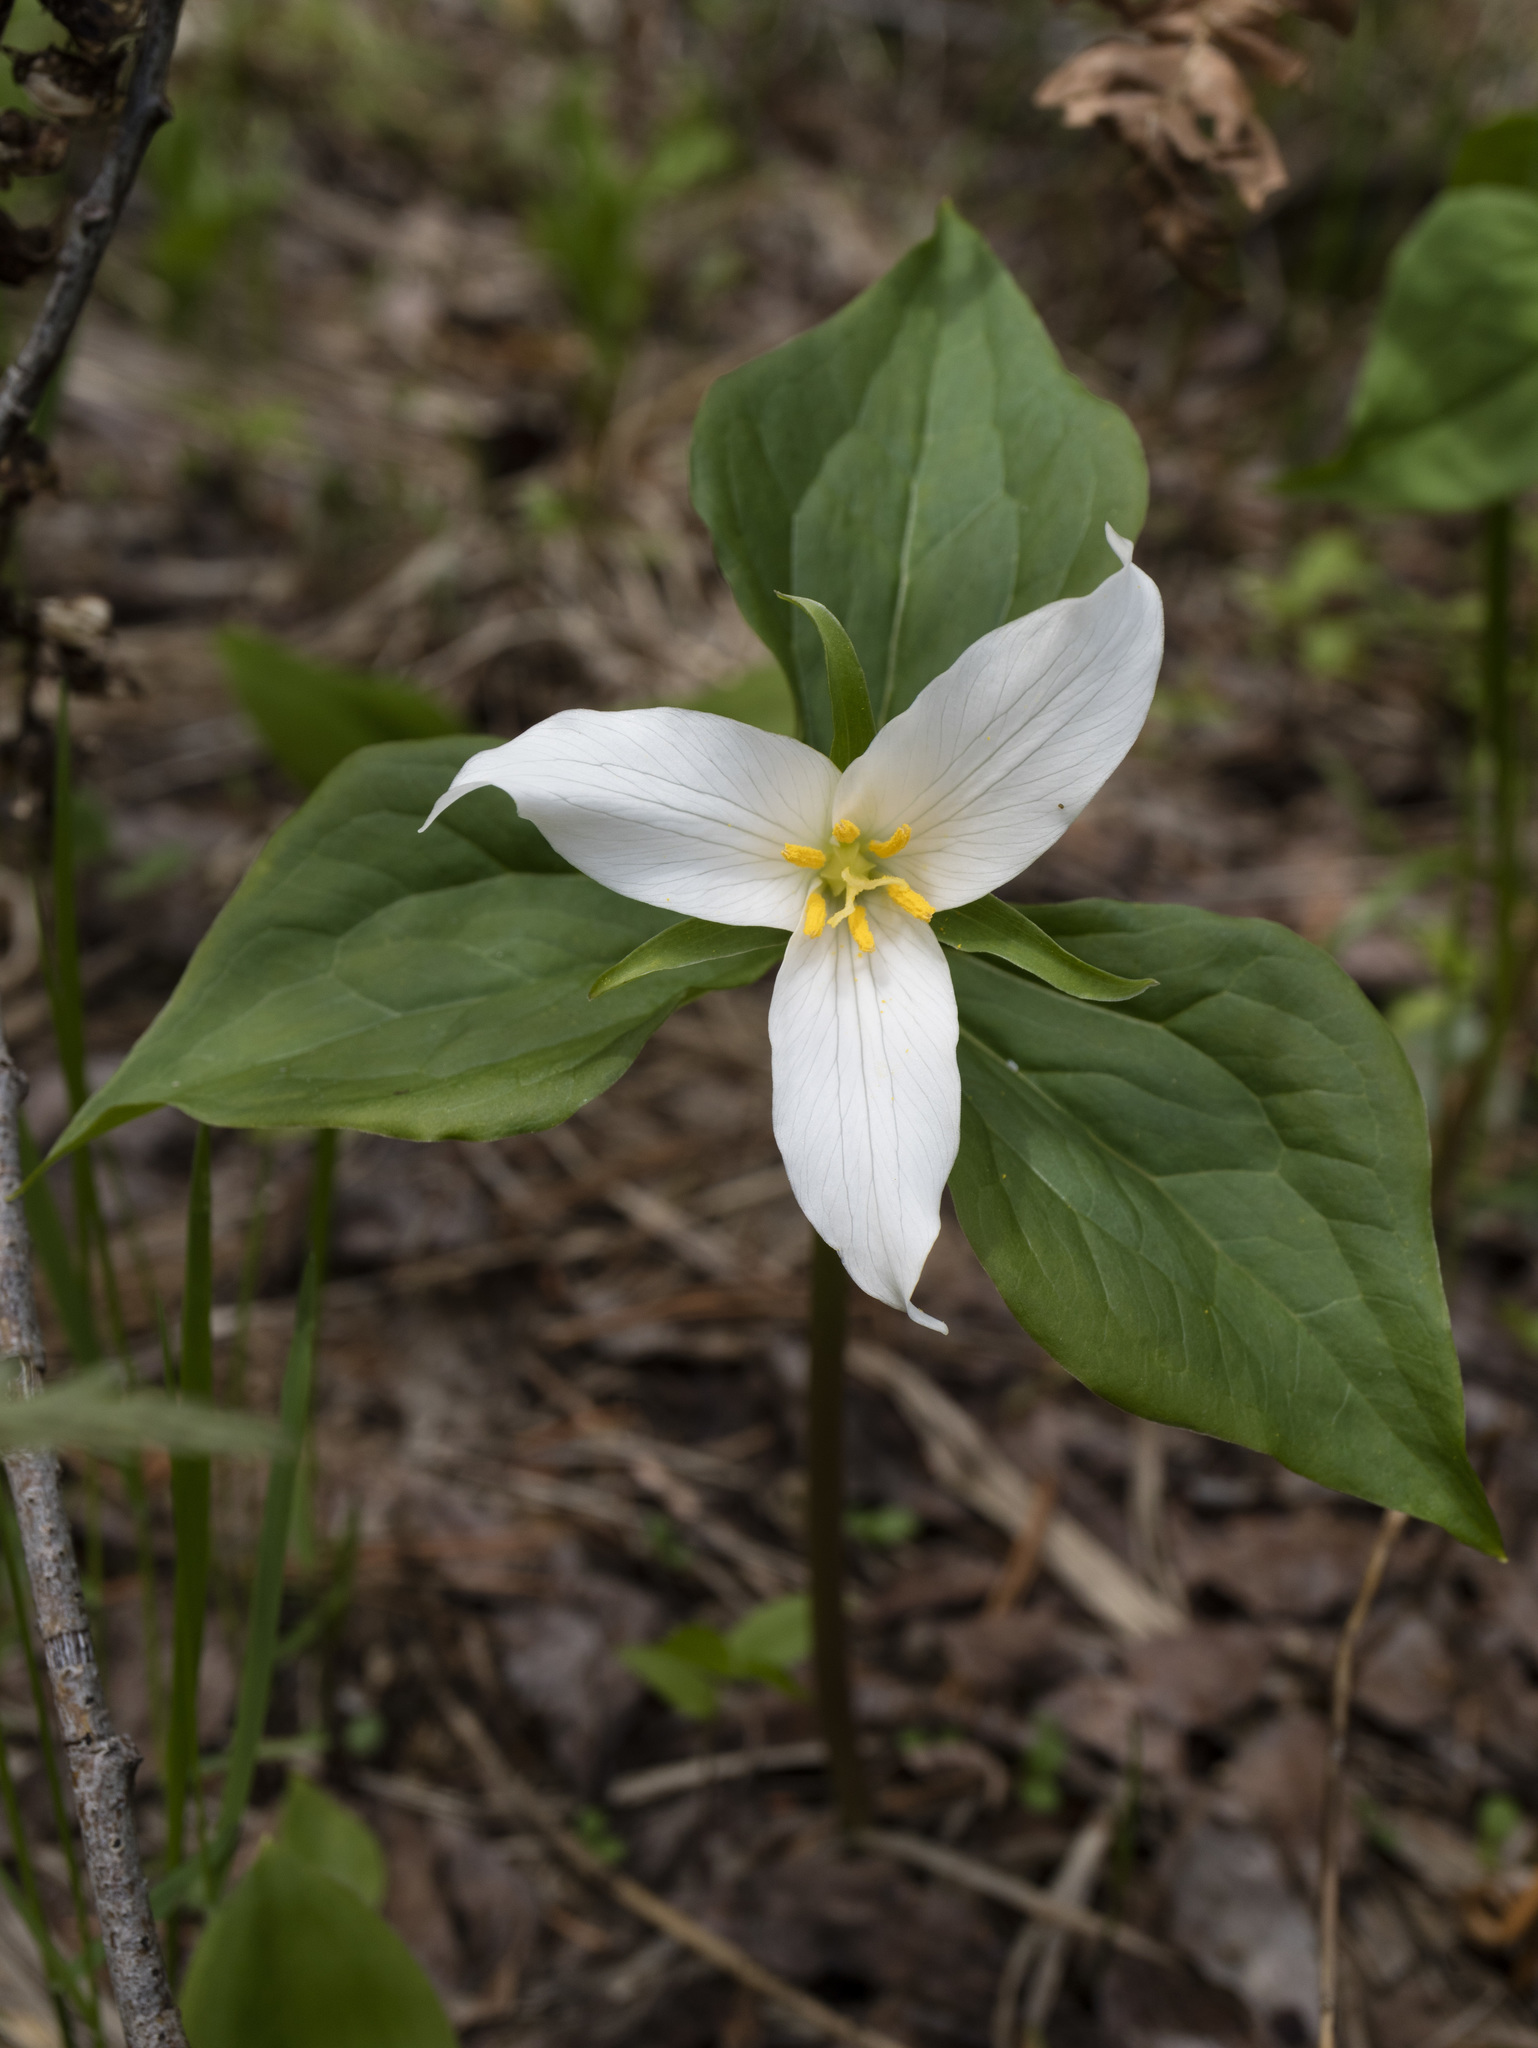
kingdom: Plantae
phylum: Tracheophyta
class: Liliopsida
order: Liliales
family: Melanthiaceae
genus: Trillium
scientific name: Trillium ovatum
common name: Pacific trillium
